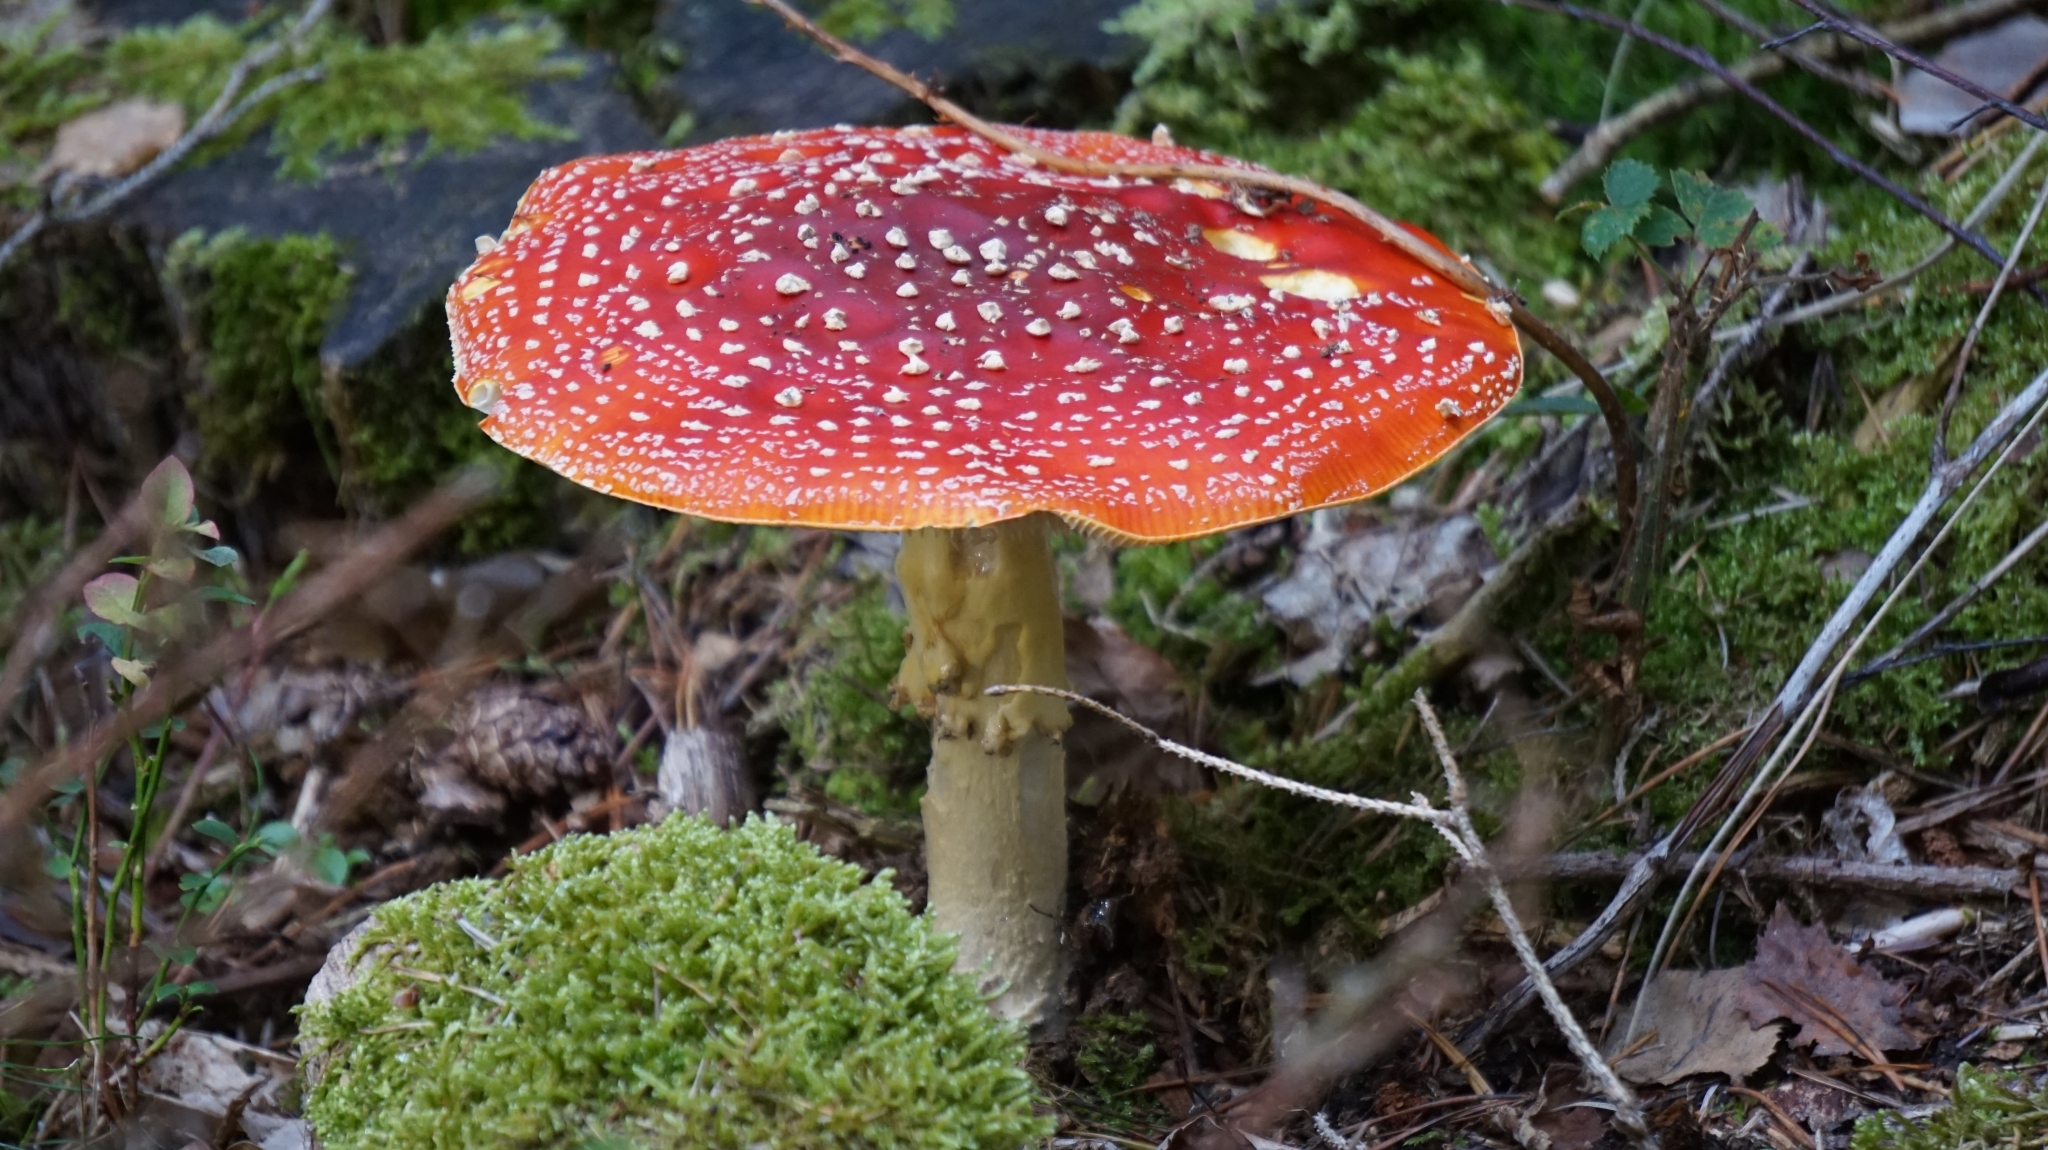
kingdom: Fungi
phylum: Basidiomycota
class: Agaricomycetes
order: Agaricales
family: Amanitaceae
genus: Amanita
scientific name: Amanita muscaria
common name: Fly agaric
